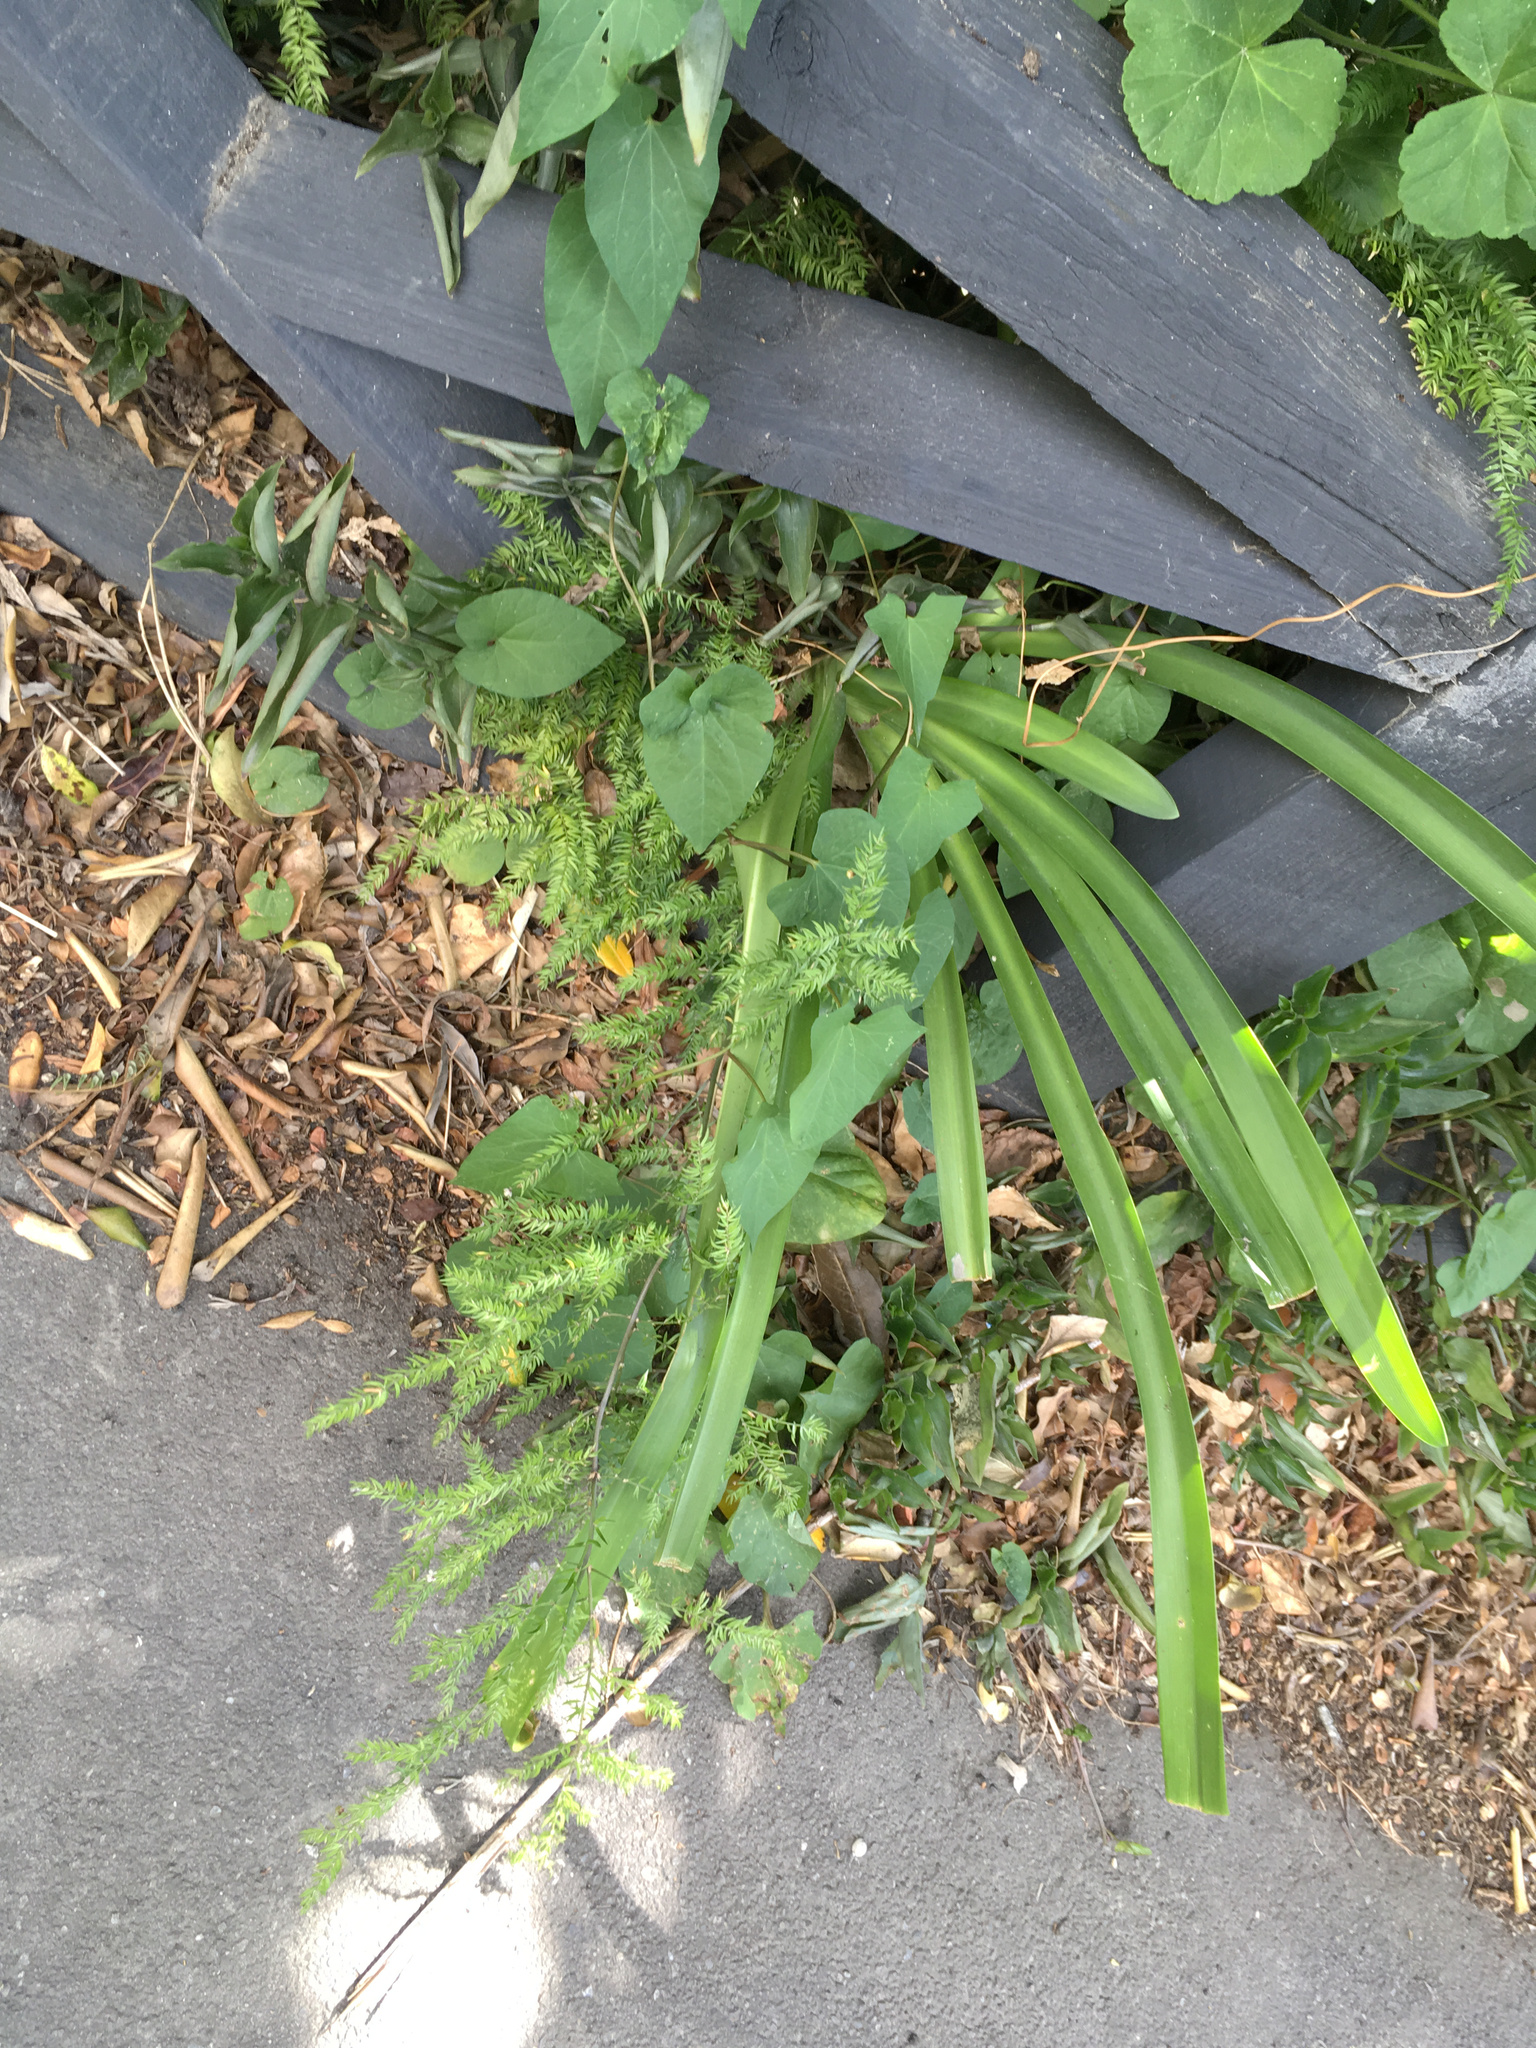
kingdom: Plantae
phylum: Tracheophyta
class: Liliopsida
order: Asparagales
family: Asparagaceae
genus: Asparagus
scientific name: Asparagus scandens
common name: Asparagus-fern
